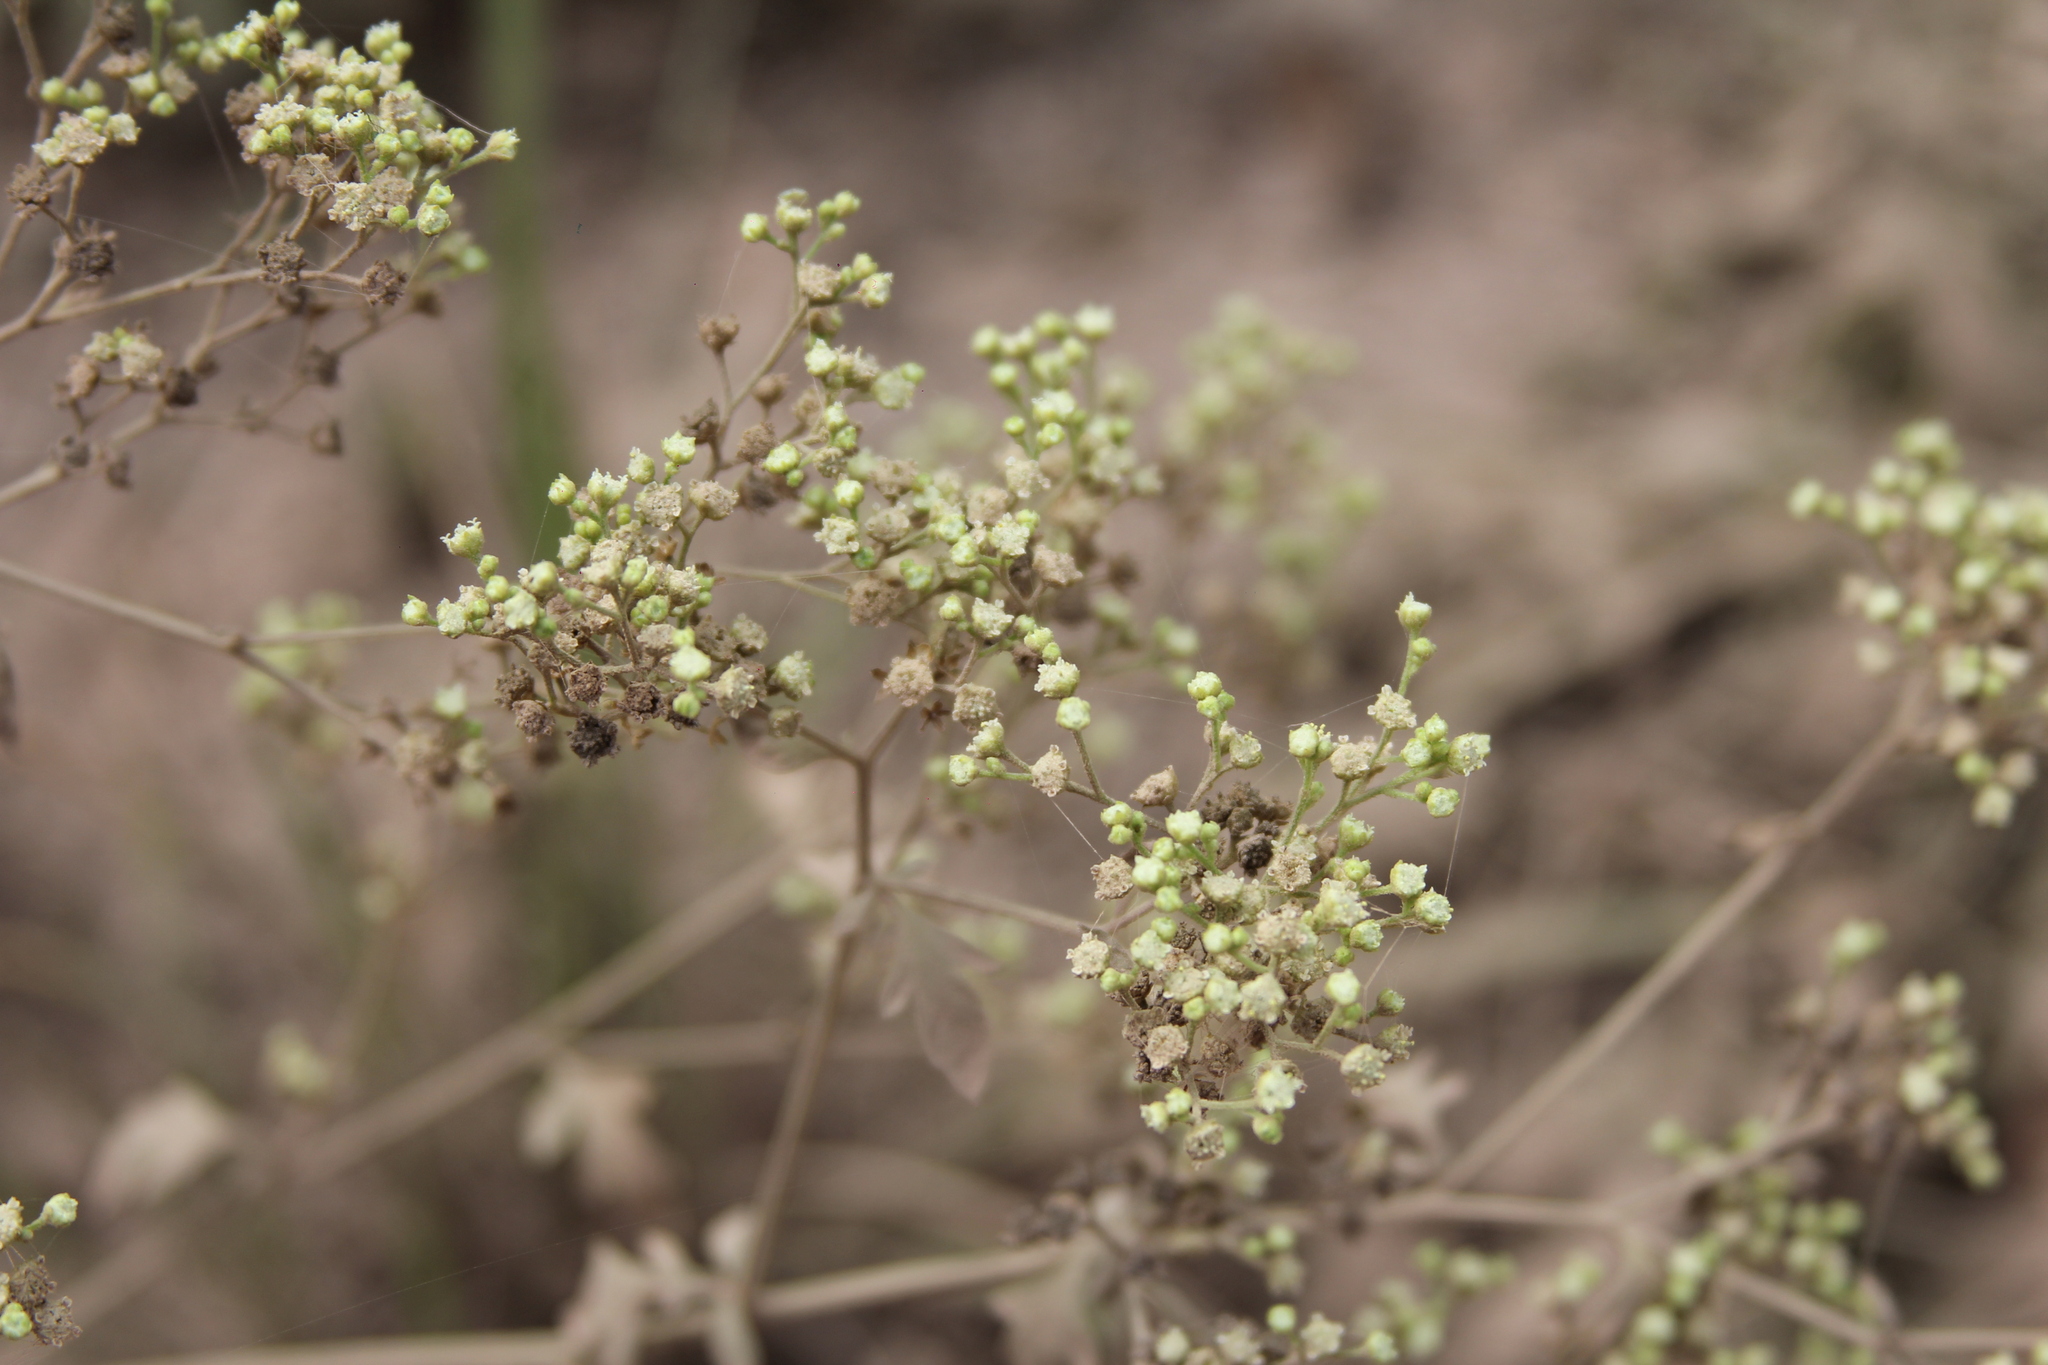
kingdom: Plantae
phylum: Tracheophyta
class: Magnoliopsida
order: Asterales
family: Asteraceae
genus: Parthenium
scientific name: Parthenium hysterophorus
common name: Santa maria feverfew
